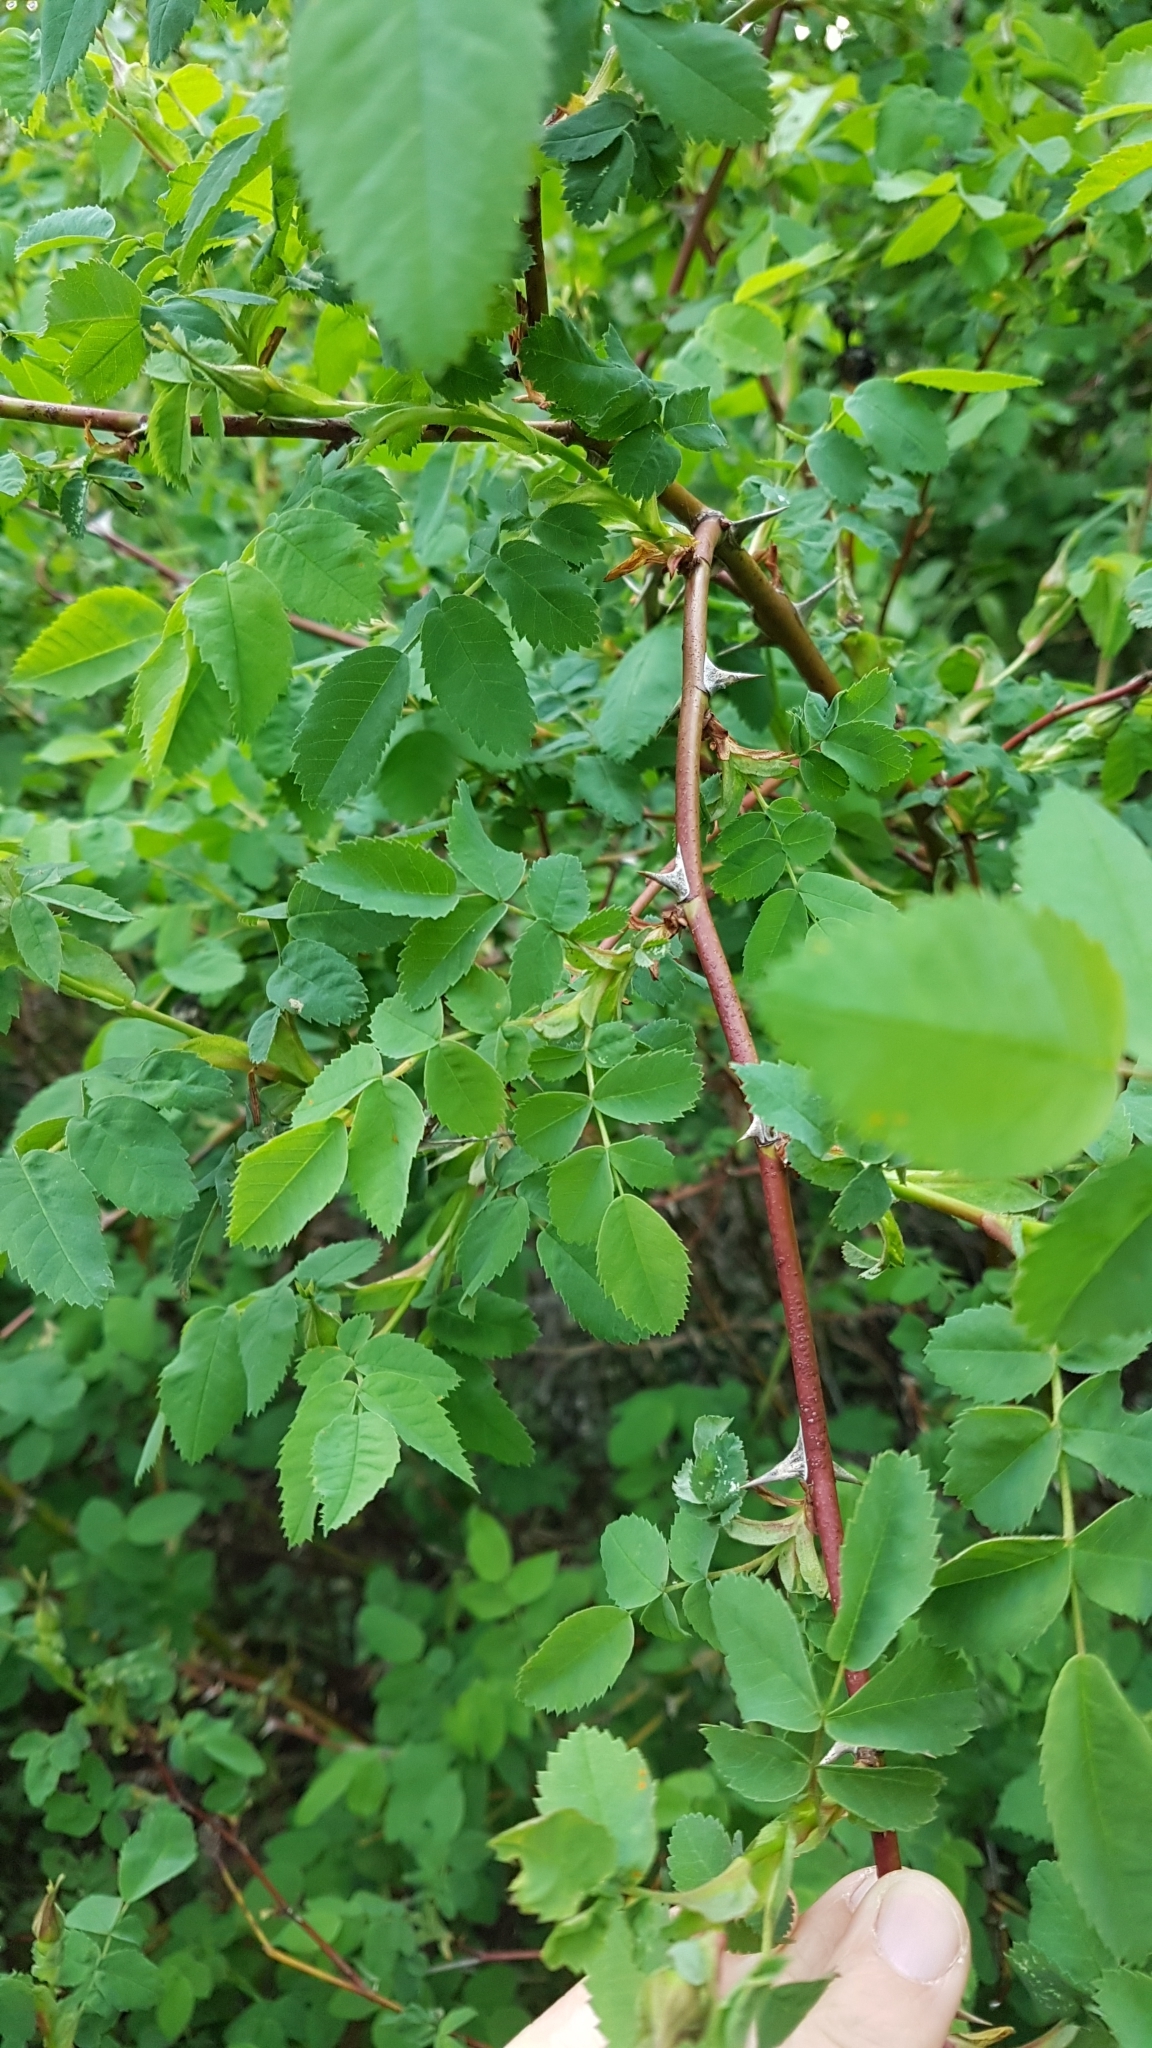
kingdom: Plantae
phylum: Tracheophyta
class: Magnoliopsida
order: Rosales
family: Rosaceae
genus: Rosa
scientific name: Rosa nutkana
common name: Nootka rose
